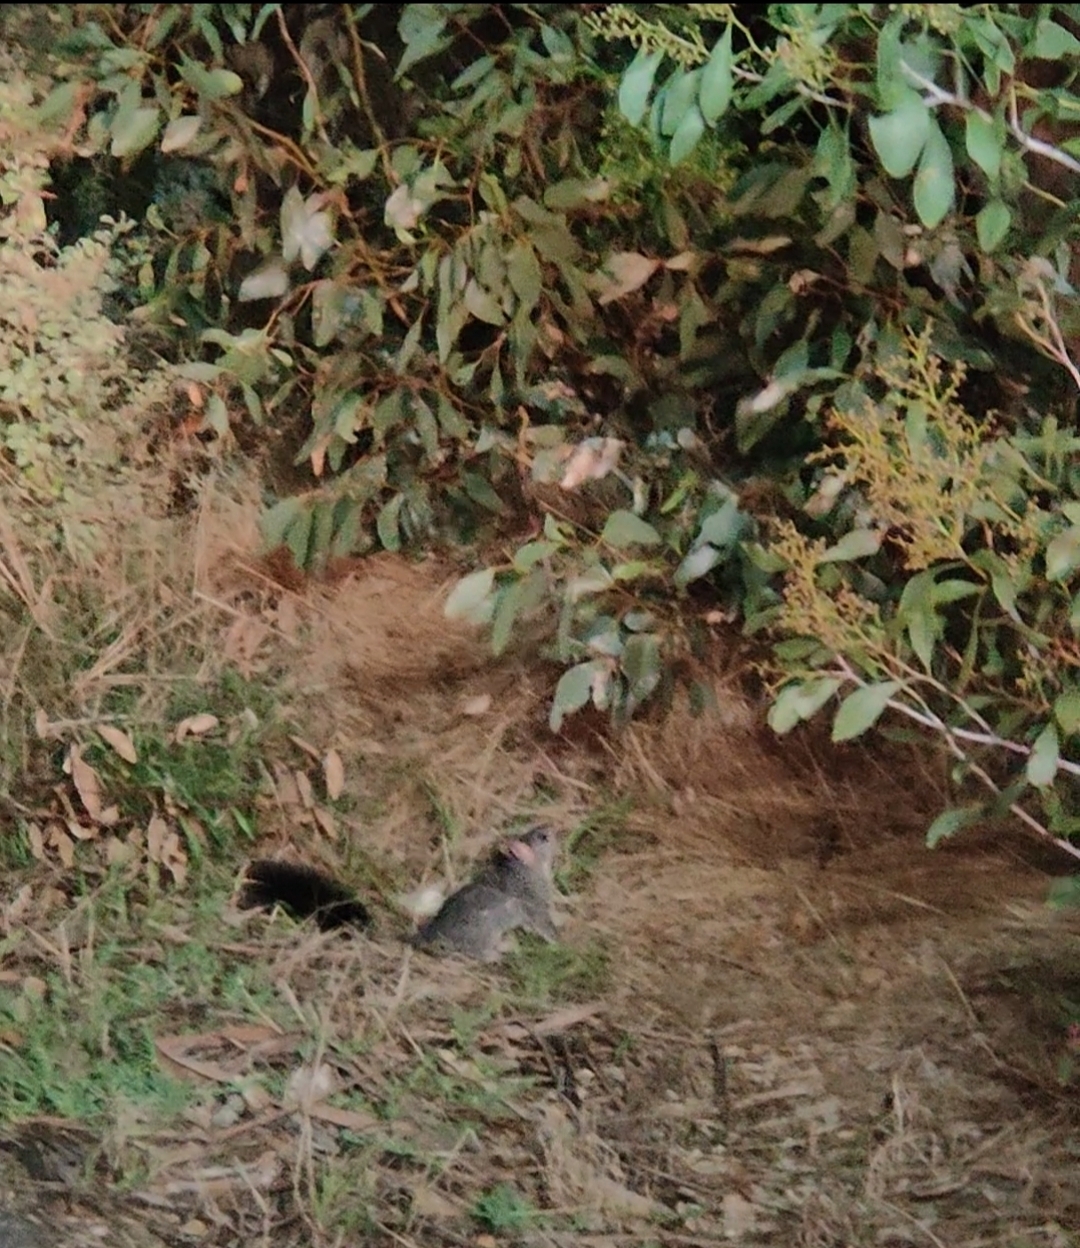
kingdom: Animalia
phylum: Chordata
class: Mammalia
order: Dasyuromorphia
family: Dasyuridae
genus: Phascogale
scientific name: Phascogale tapoatafa
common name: Brush-tailed phascogale
